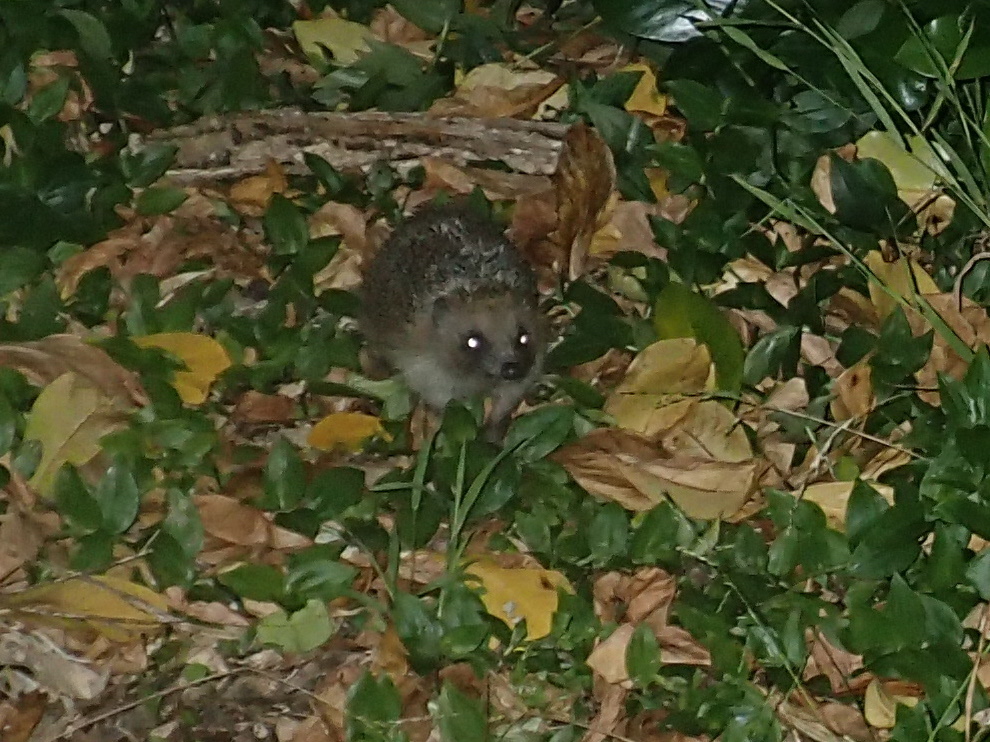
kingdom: Animalia
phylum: Chordata
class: Mammalia
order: Erinaceomorpha
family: Erinaceidae
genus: Erinaceus
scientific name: Erinaceus europaeus
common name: West european hedgehog
